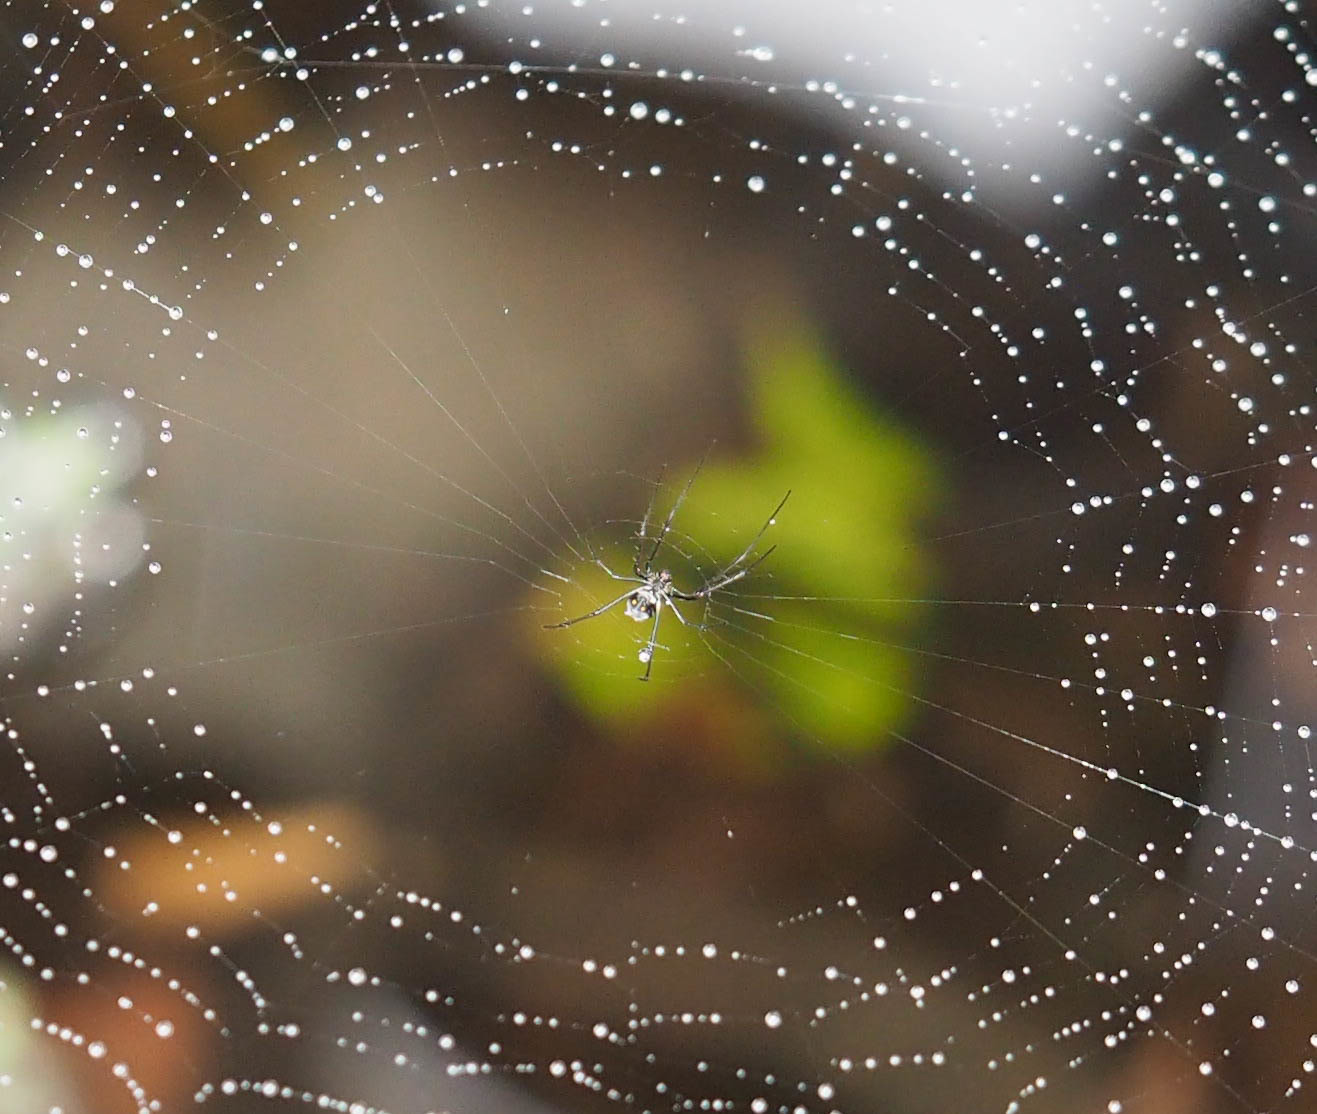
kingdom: Animalia
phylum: Arthropoda
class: Arachnida
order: Araneae
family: Tetragnathidae
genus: Leucauge
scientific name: Leucauge argyra
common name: Longjawed orb weavers
